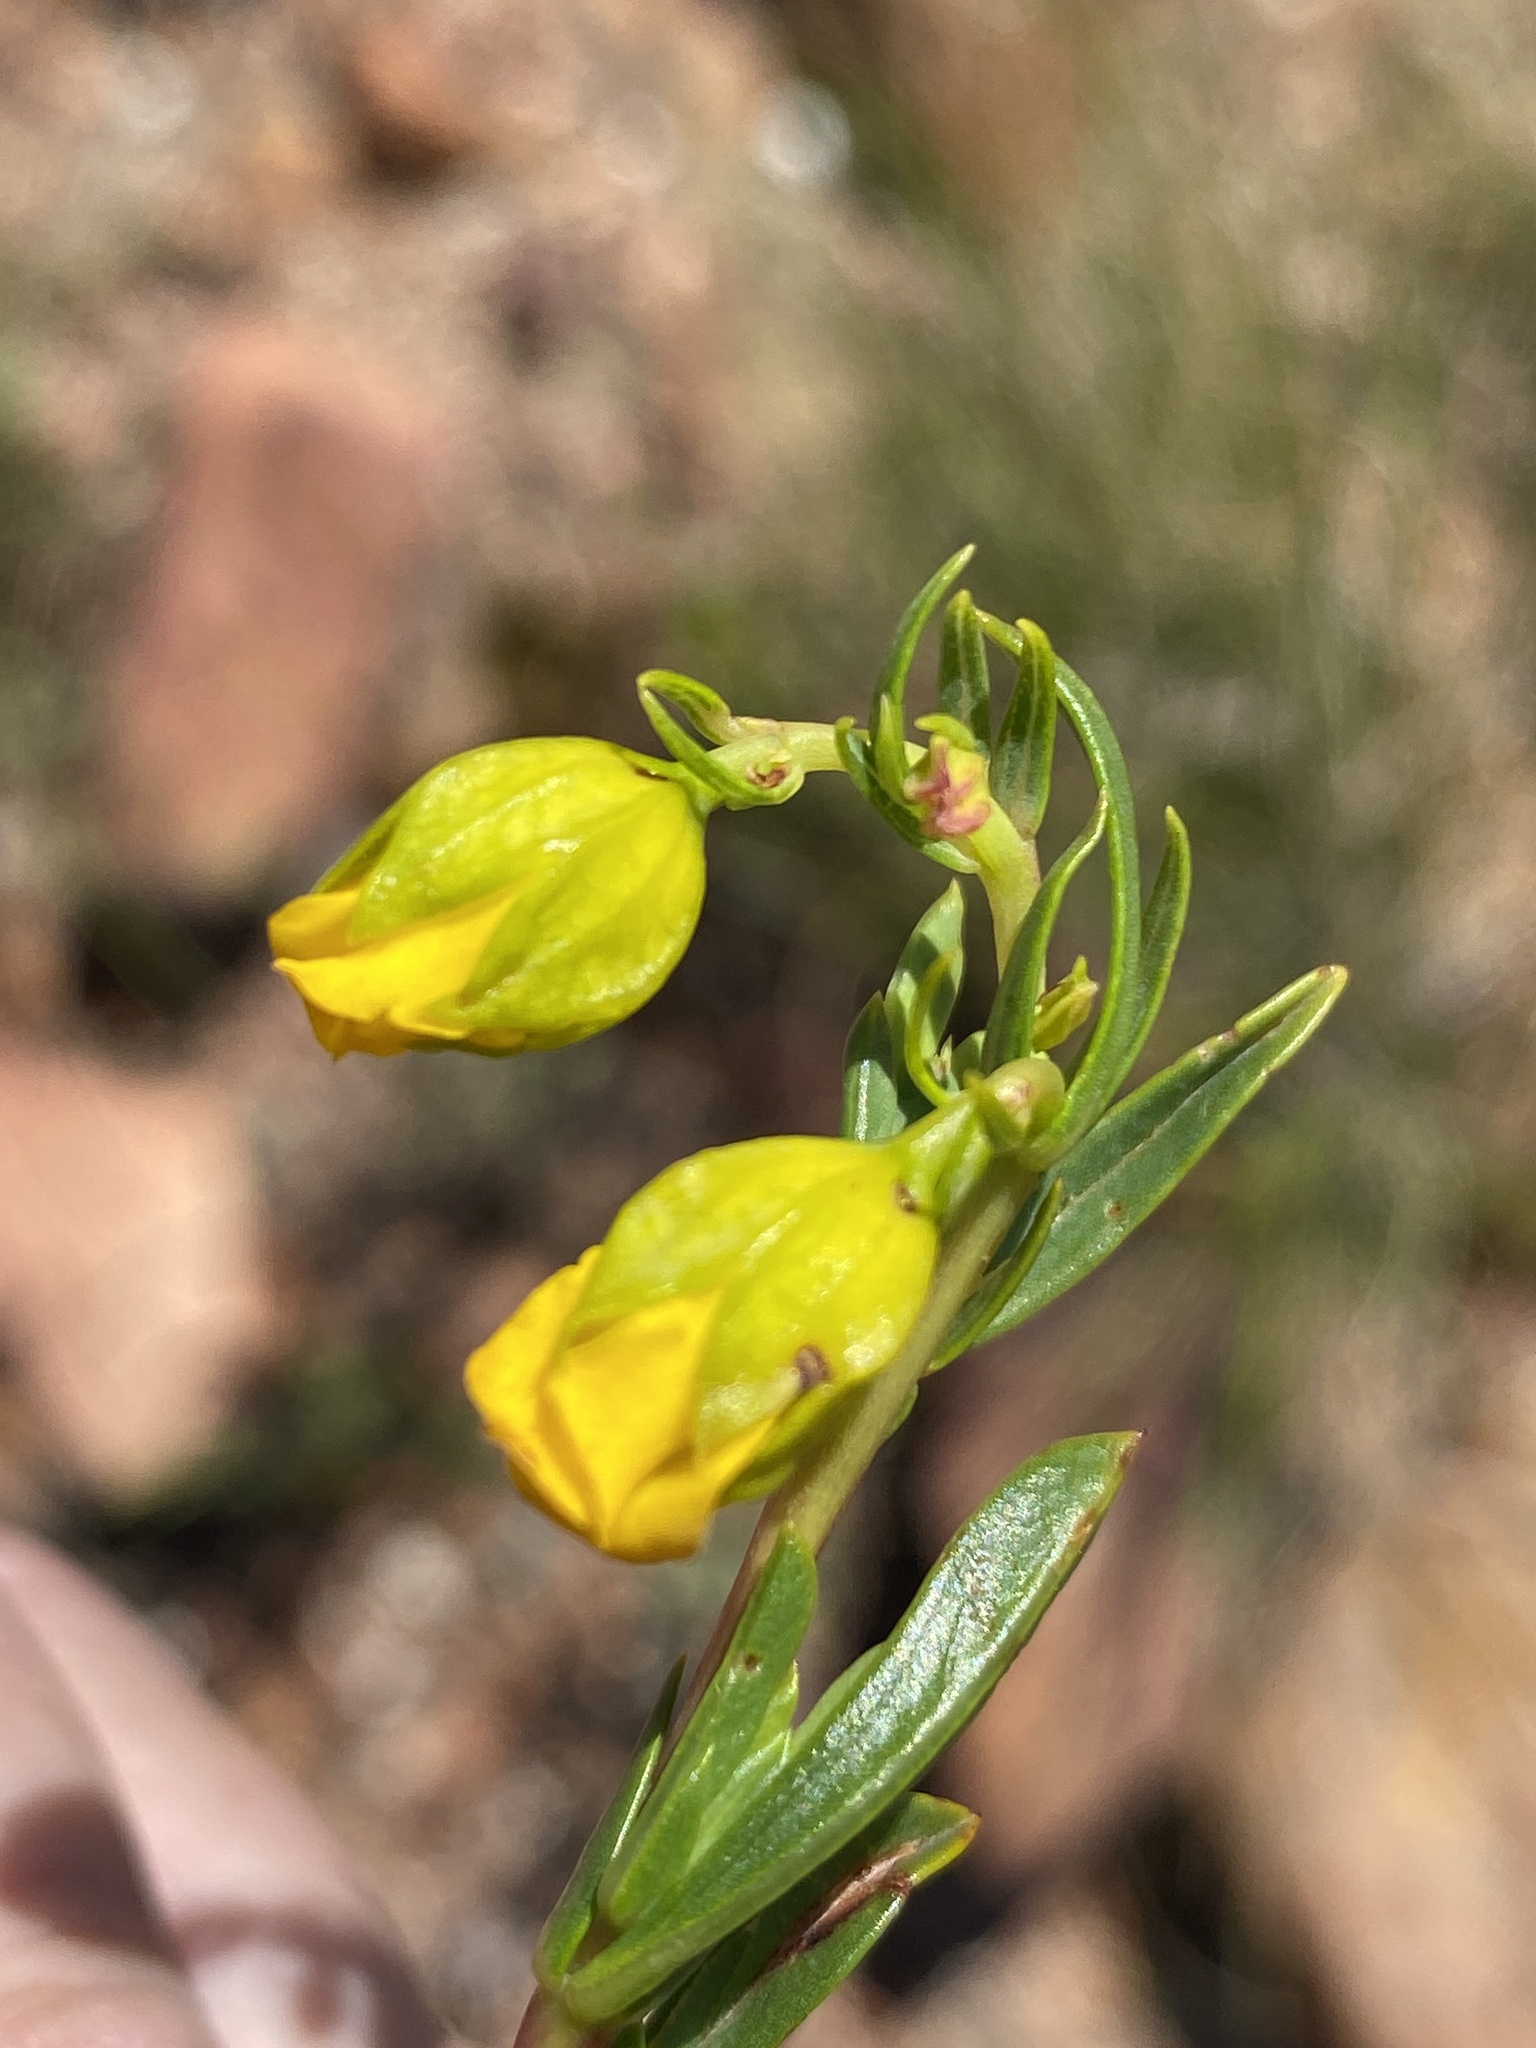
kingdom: Plantae
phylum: Tracheophyta
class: Magnoliopsida
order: Malvales
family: Malvaceae
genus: Hermannia
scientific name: Hermannia
